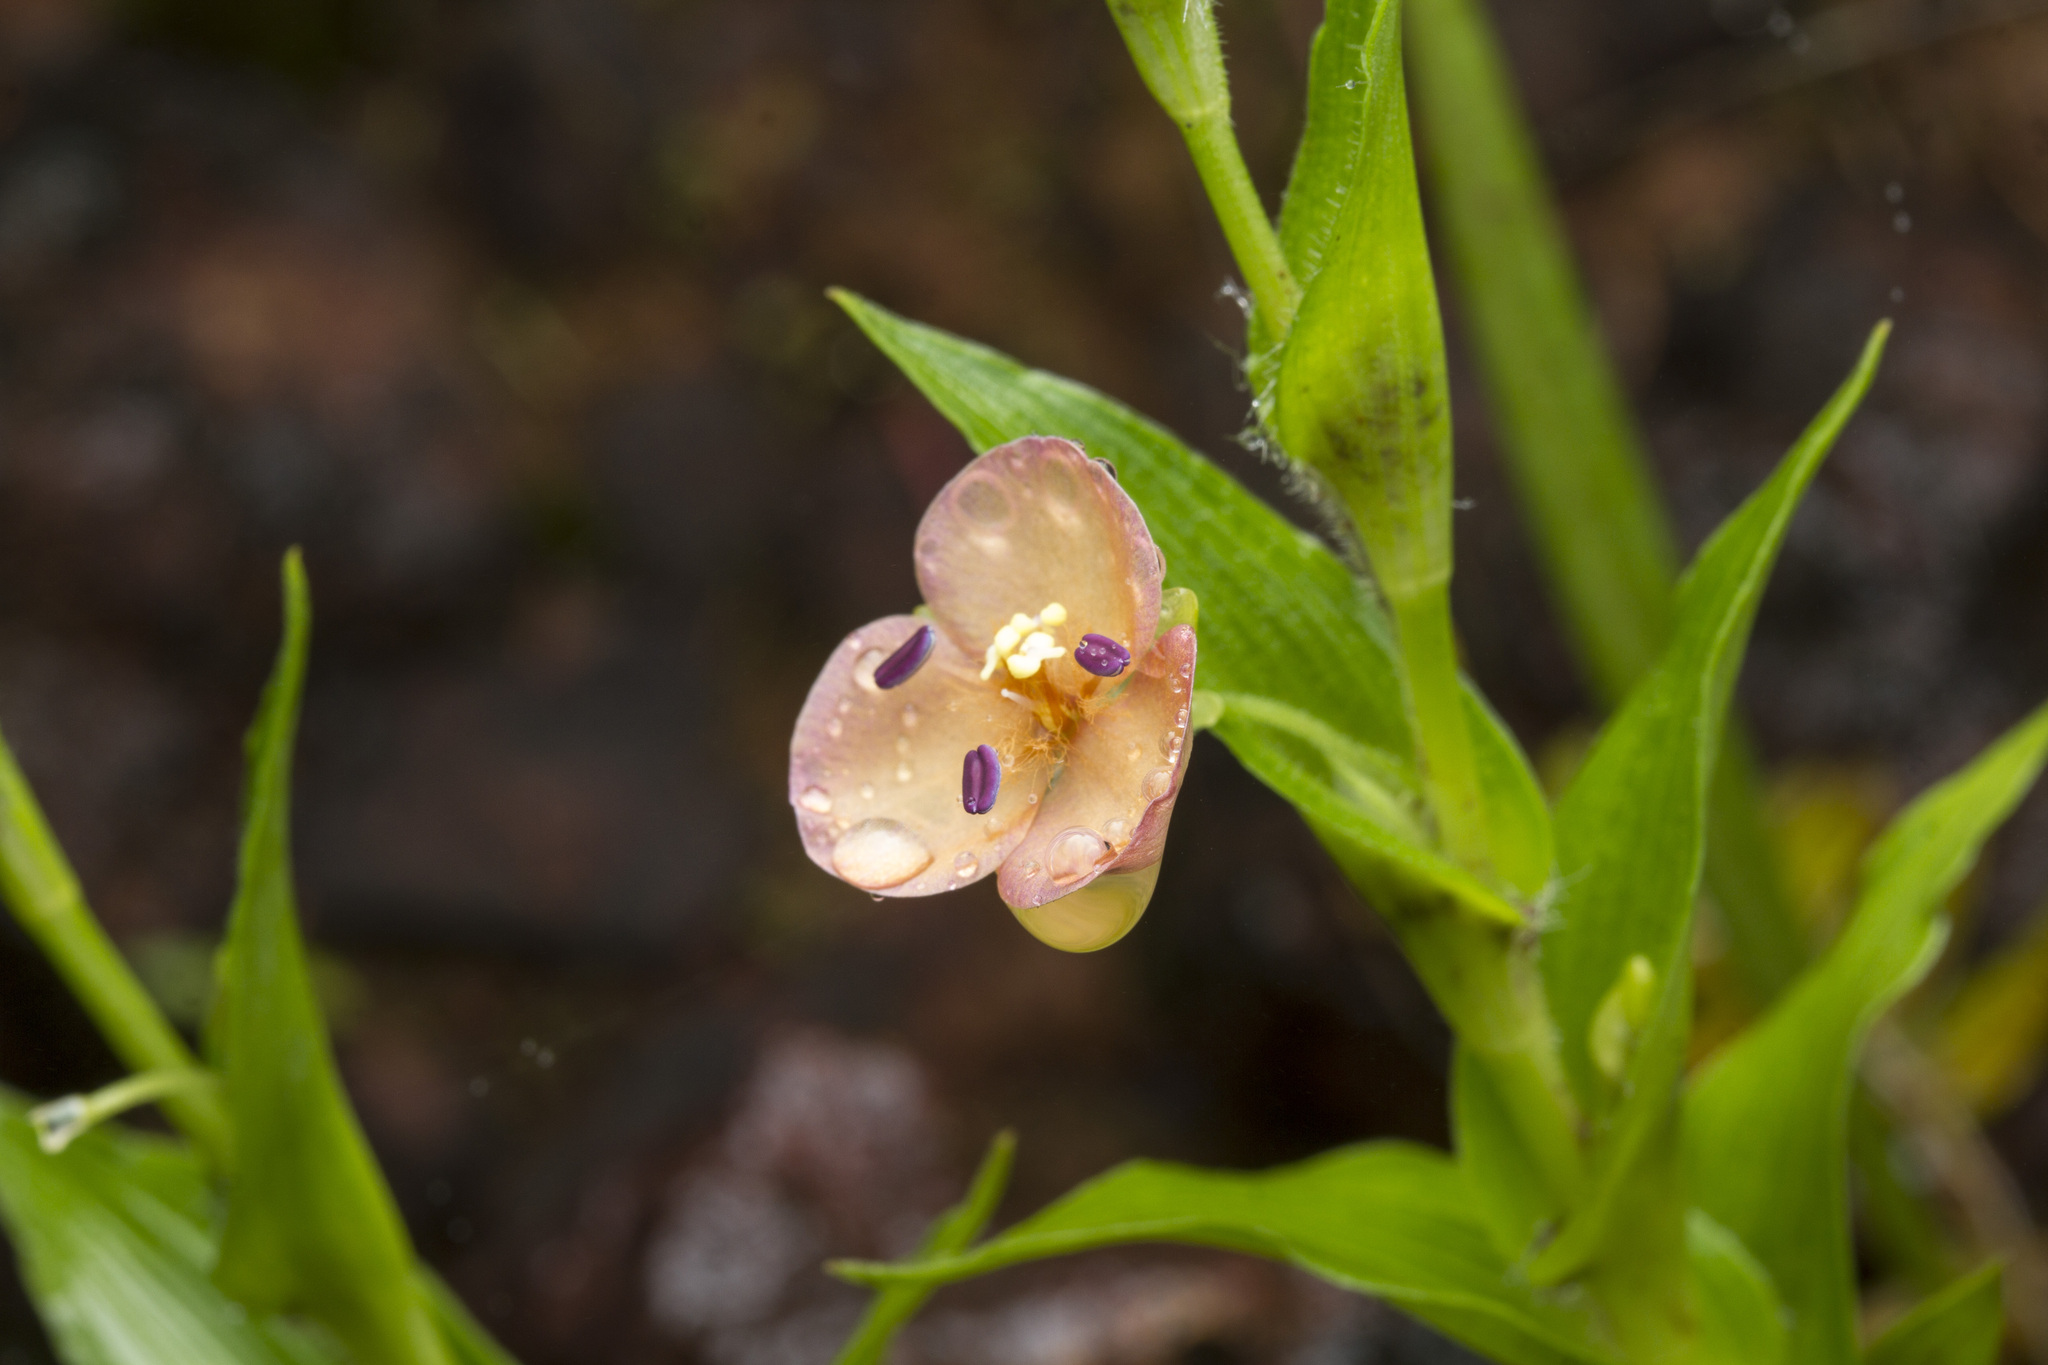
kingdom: Plantae
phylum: Tracheophyta
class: Liliopsida
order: Commelinales
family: Commelinaceae
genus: Murdannia
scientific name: Murdannia lanuginosa
